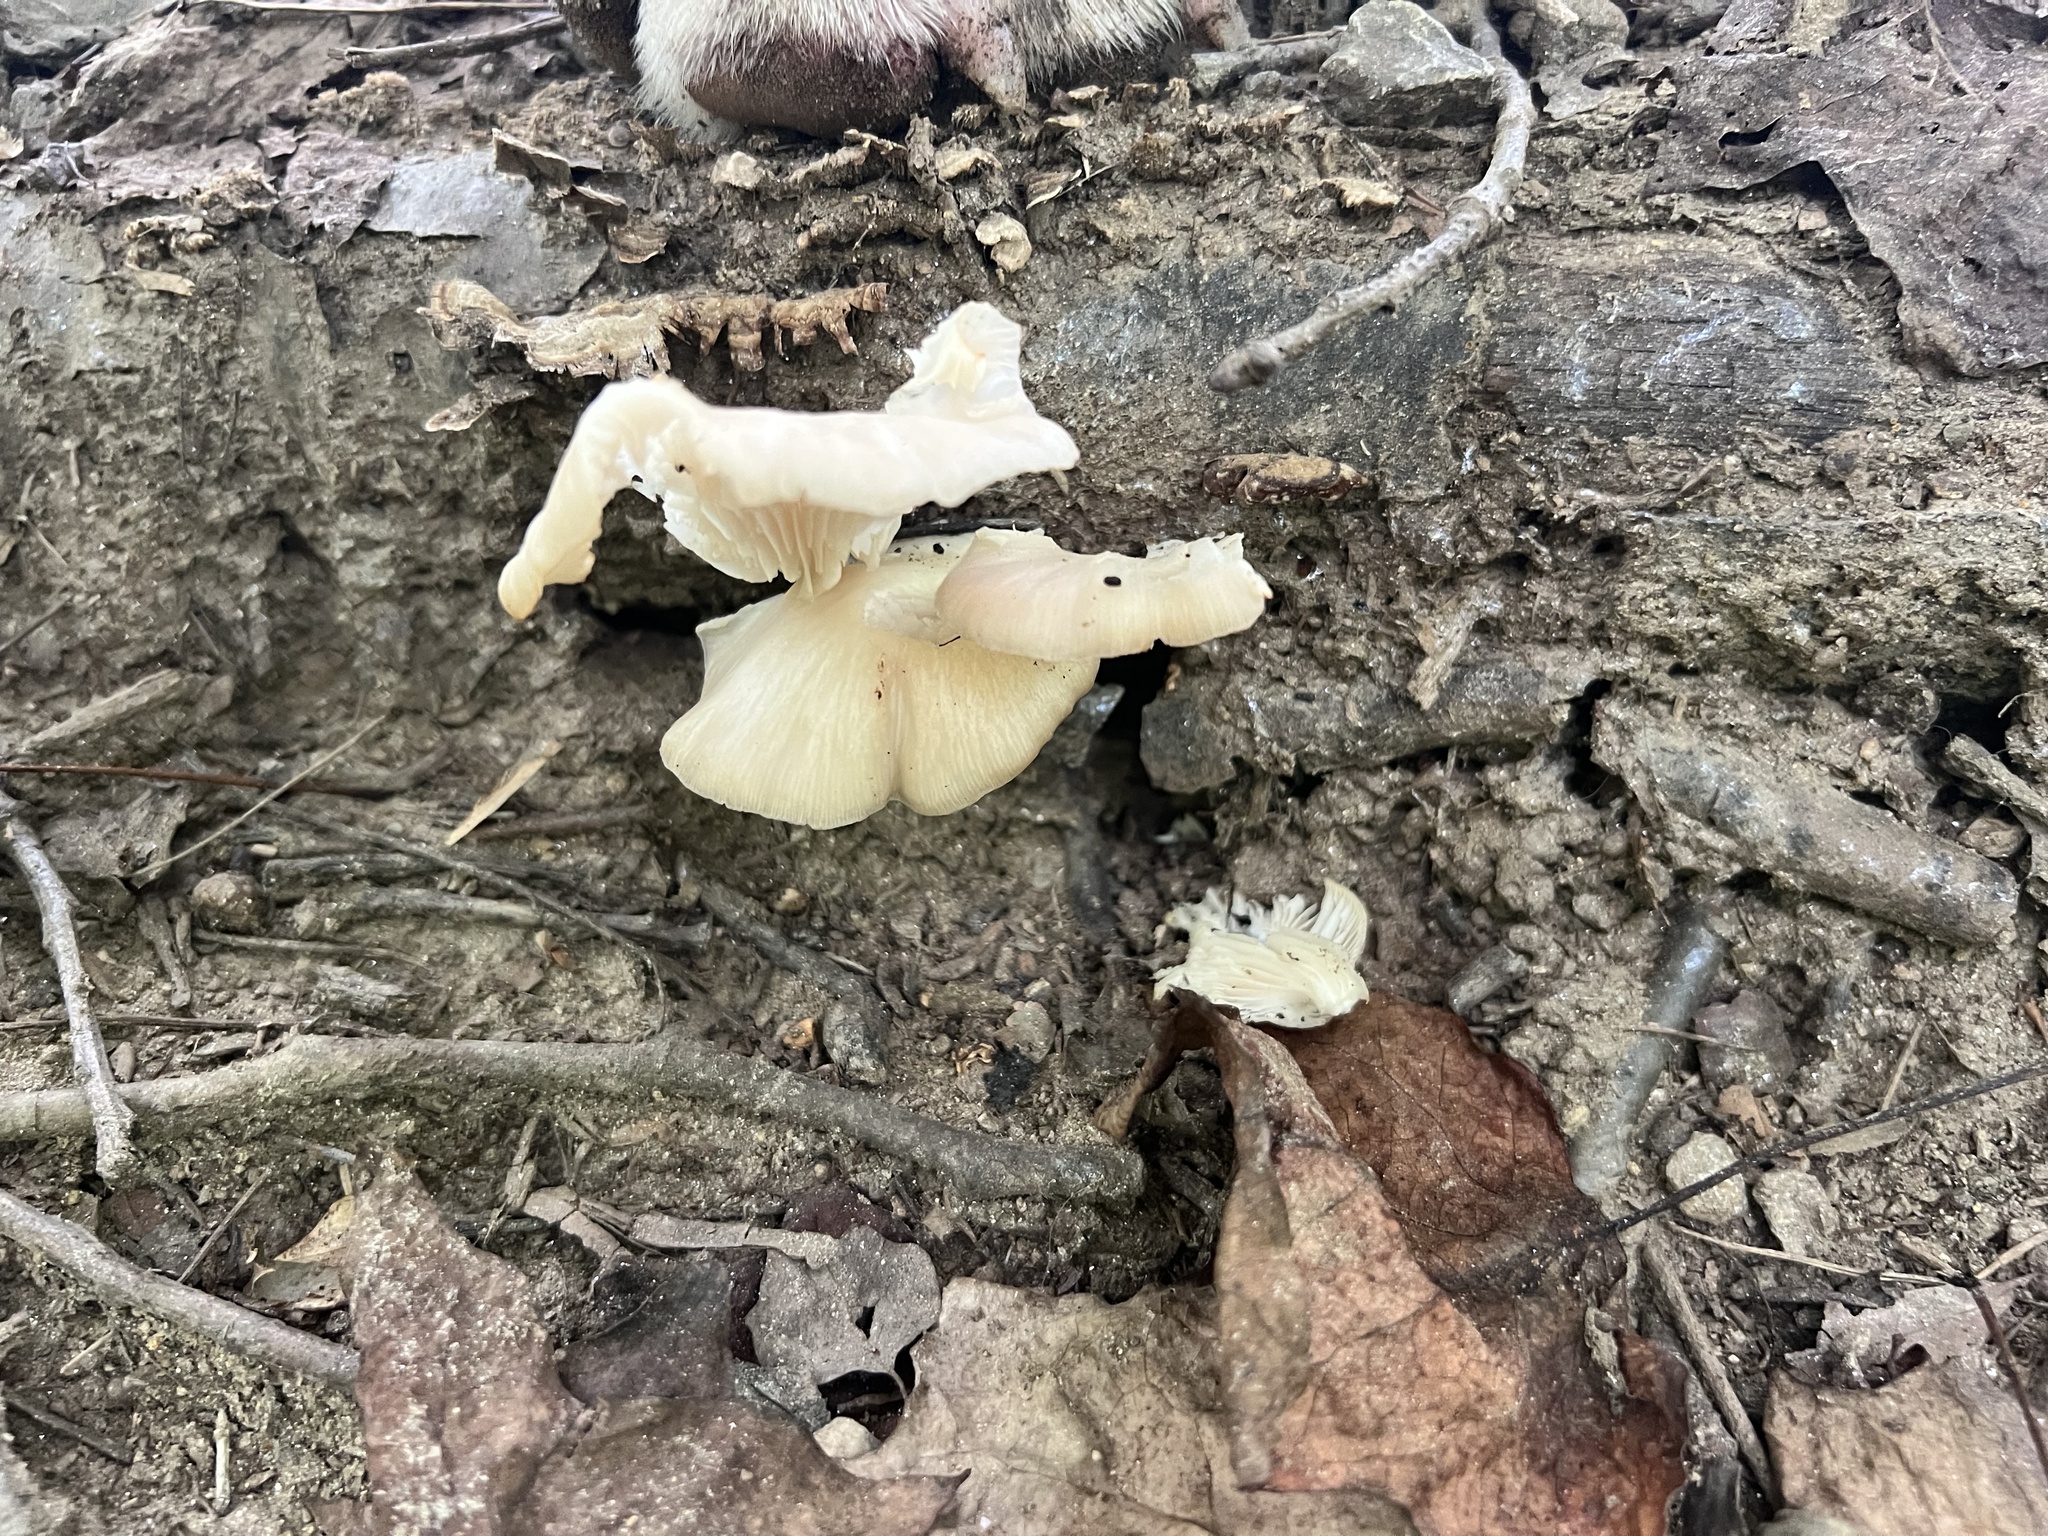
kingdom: Fungi
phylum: Basidiomycota
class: Agaricomycetes
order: Agaricales
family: Pleurotaceae
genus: Pleurotus
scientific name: Pleurotus pulmonarius
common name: Pale oyster
